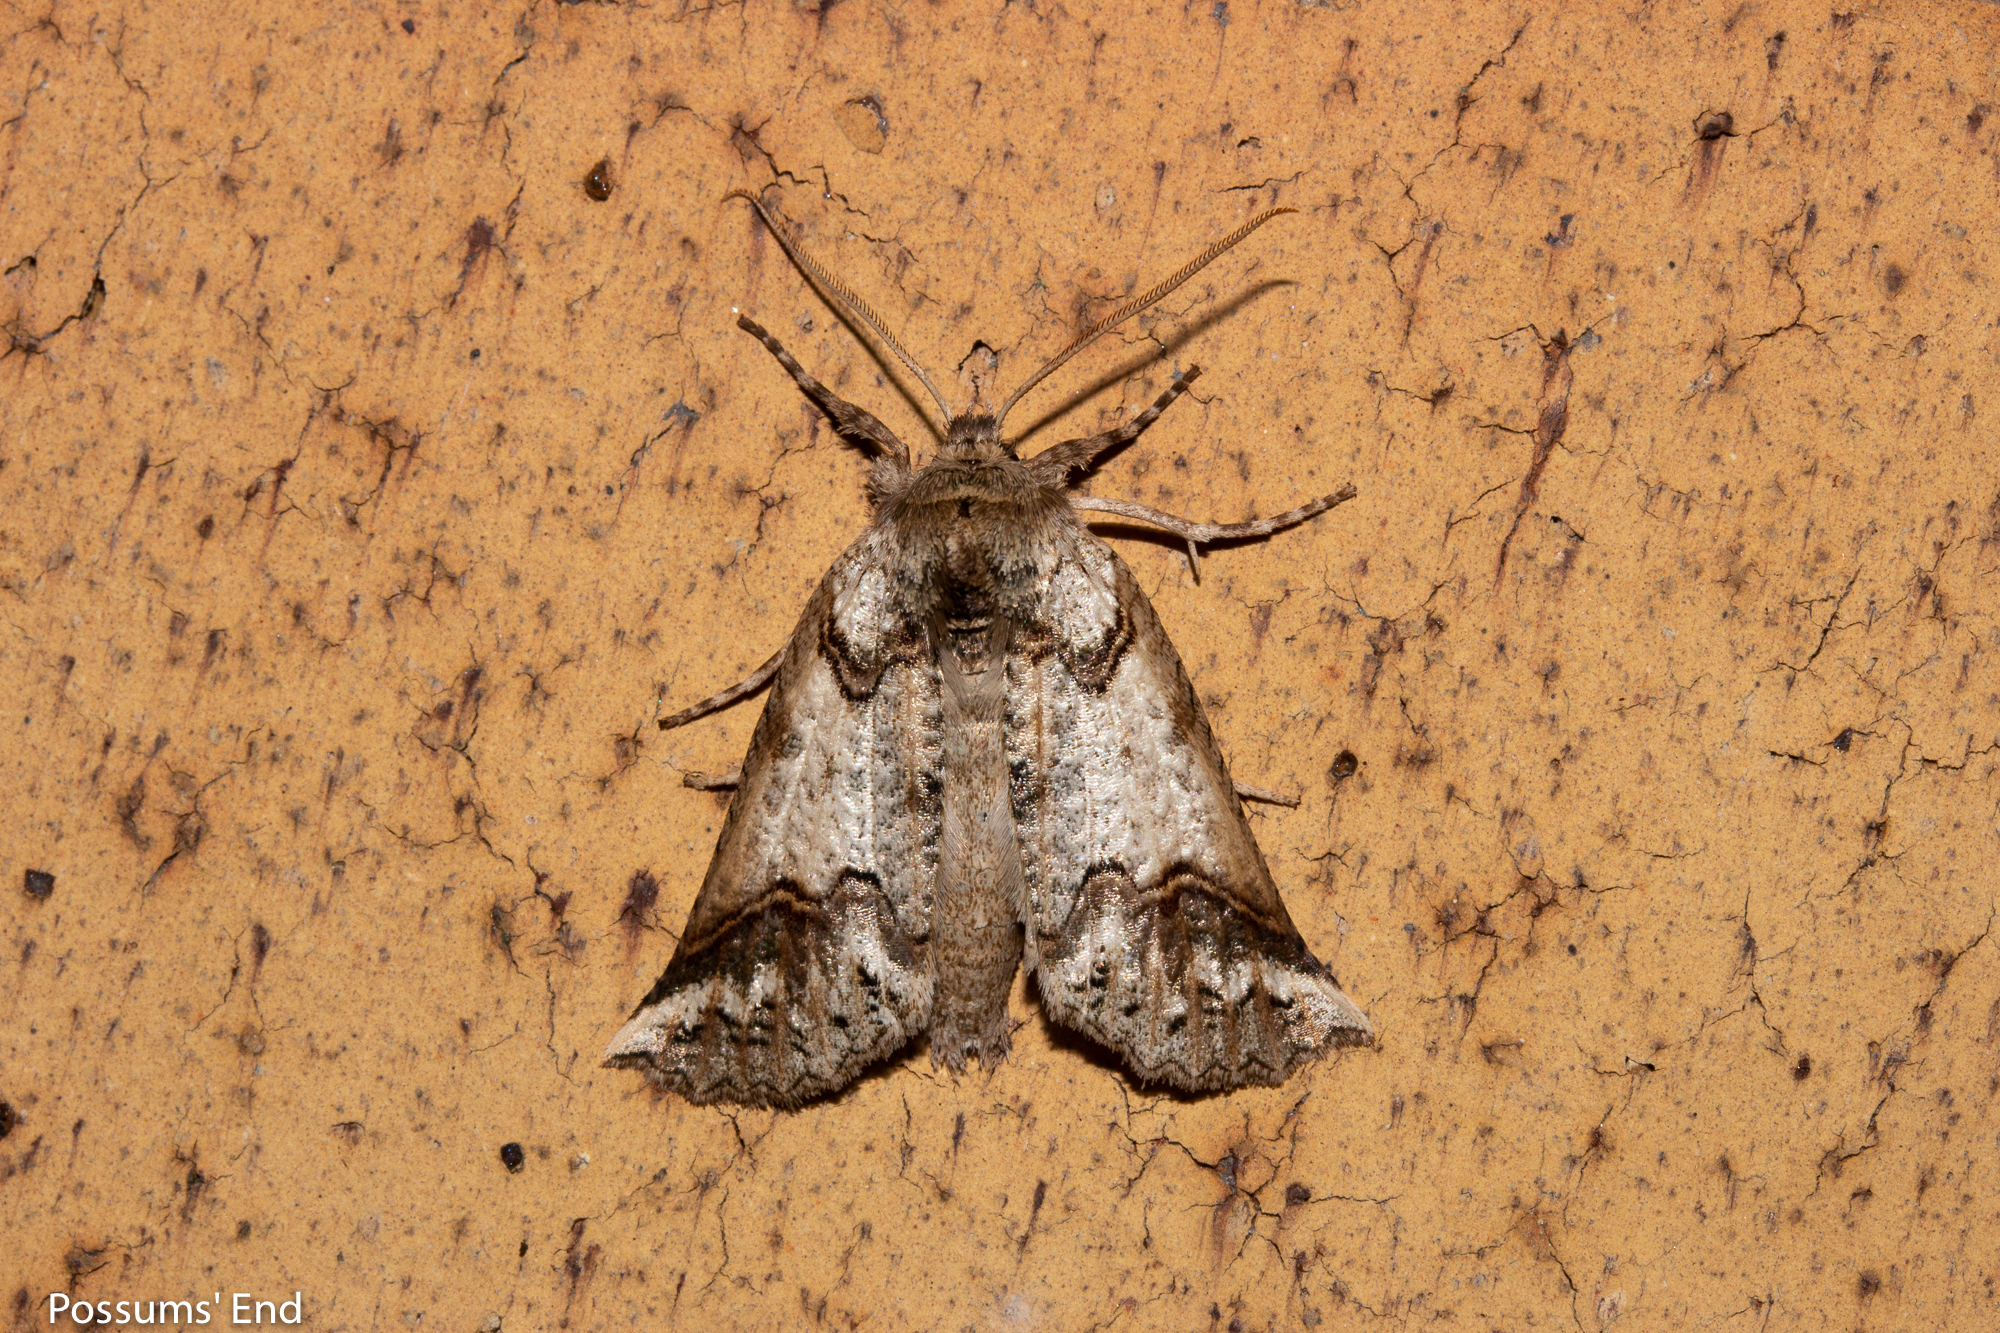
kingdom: Animalia
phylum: Arthropoda
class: Insecta
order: Lepidoptera
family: Geometridae
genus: Declana
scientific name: Declana
